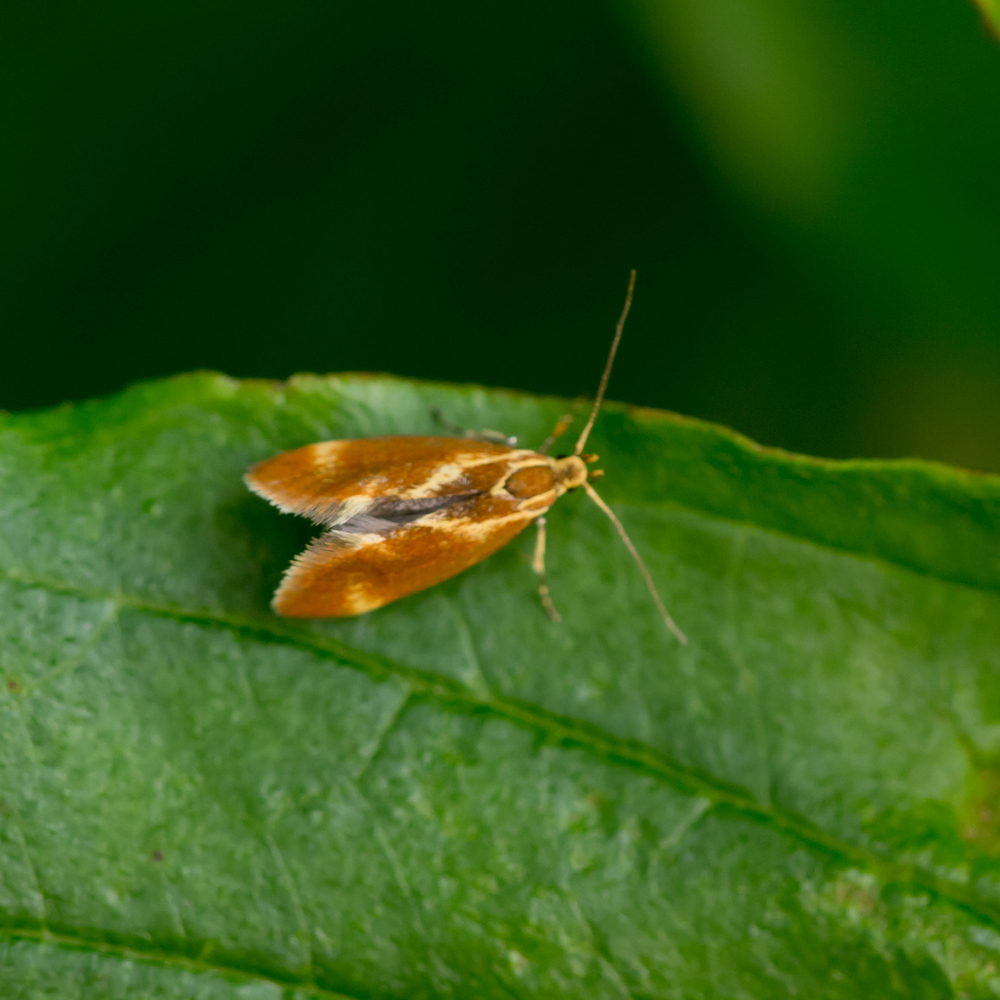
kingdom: Animalia
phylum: Arthropoda
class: Insecta
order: Lepidoptera
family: Oecophoridae
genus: Borkhausenia
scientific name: Borkhausenia italica
